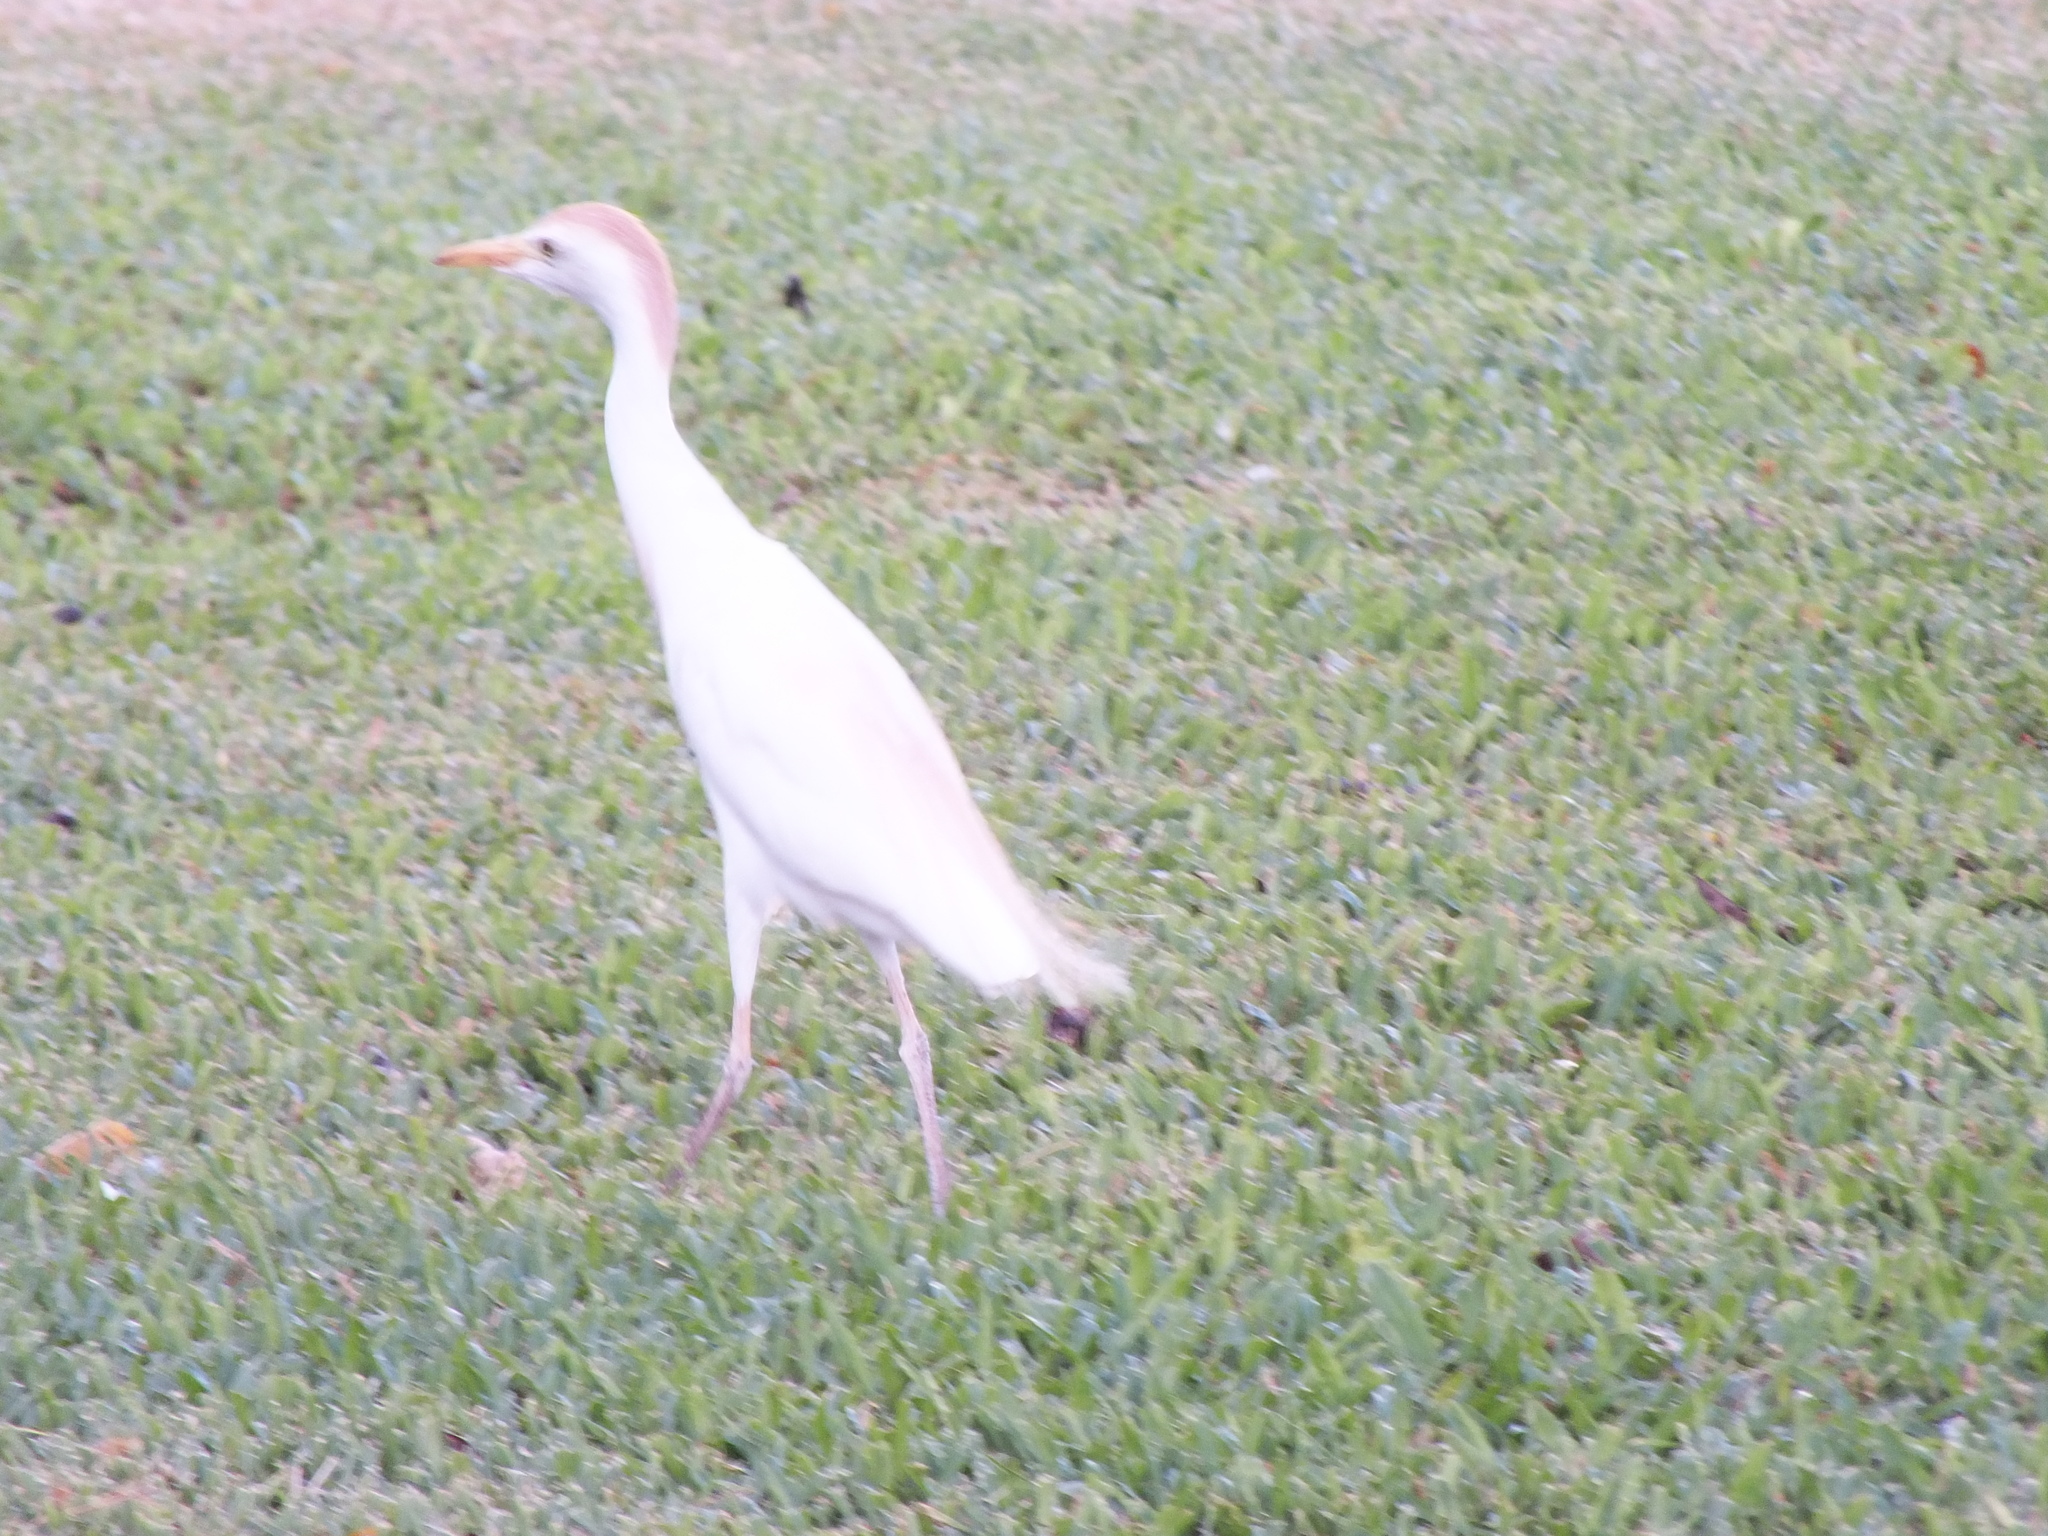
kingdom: Animalia
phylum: Chordata
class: Aves
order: Pelecaniformes
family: Ardeidae
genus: Bubulcus
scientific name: Bubulcus ibis
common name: Cattle egret
